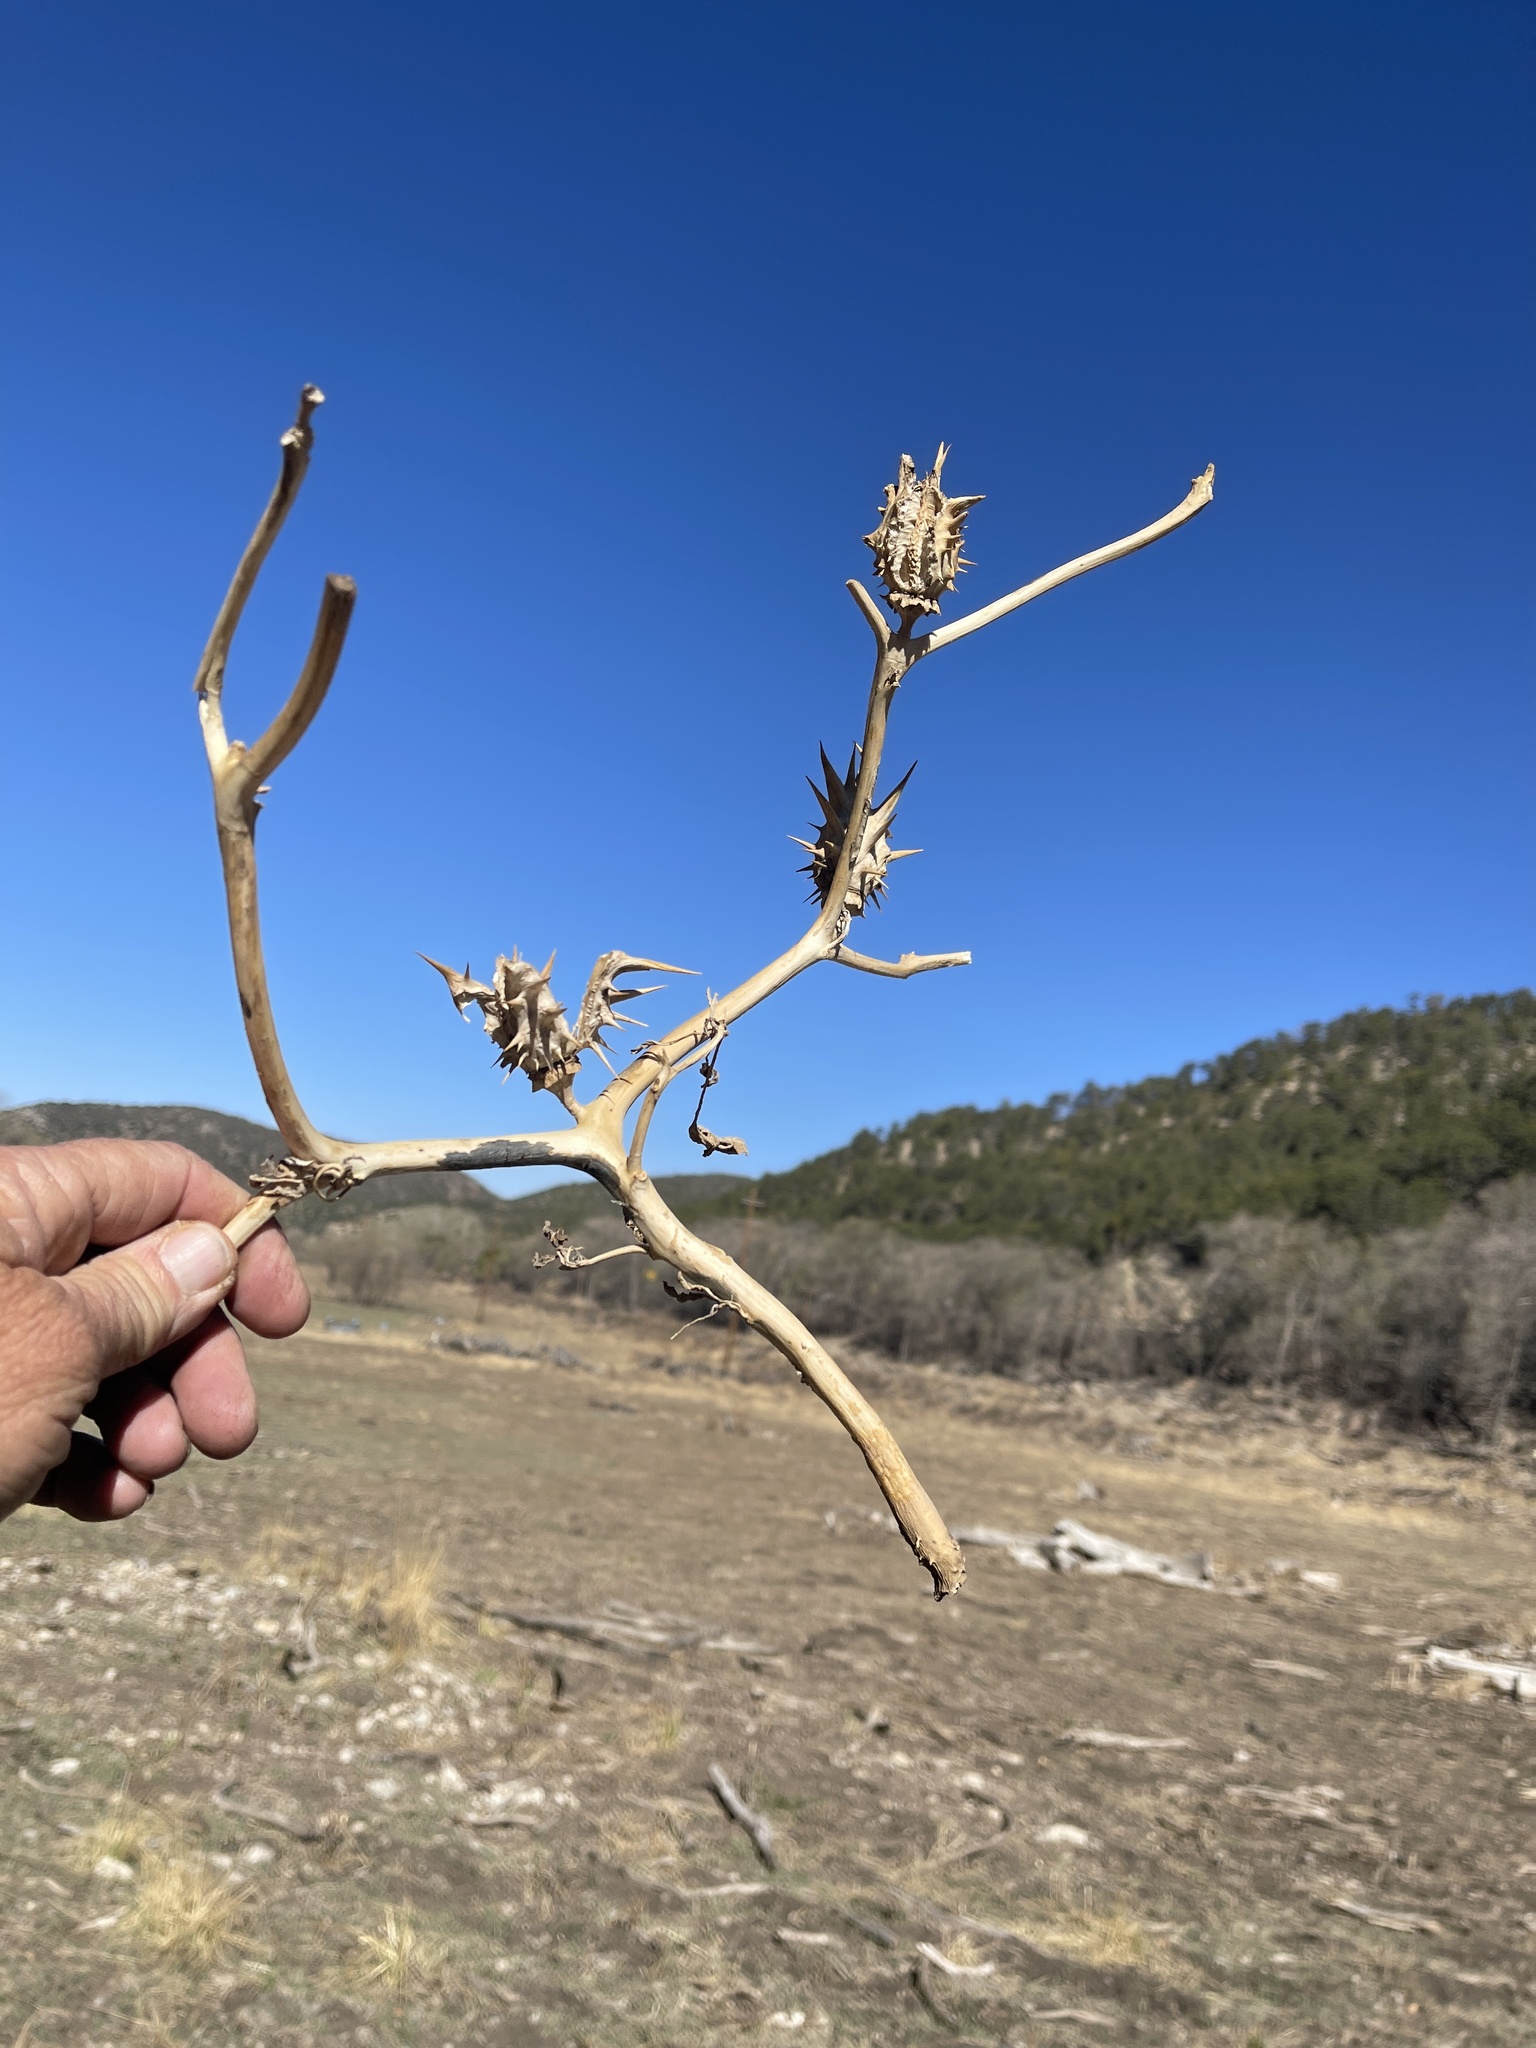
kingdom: Plantae
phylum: Tracheophyta
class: Magnoliopsida
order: Solanales
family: Solanaceae
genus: Datura
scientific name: Datura quercifolia
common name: Oak-leaf datura
